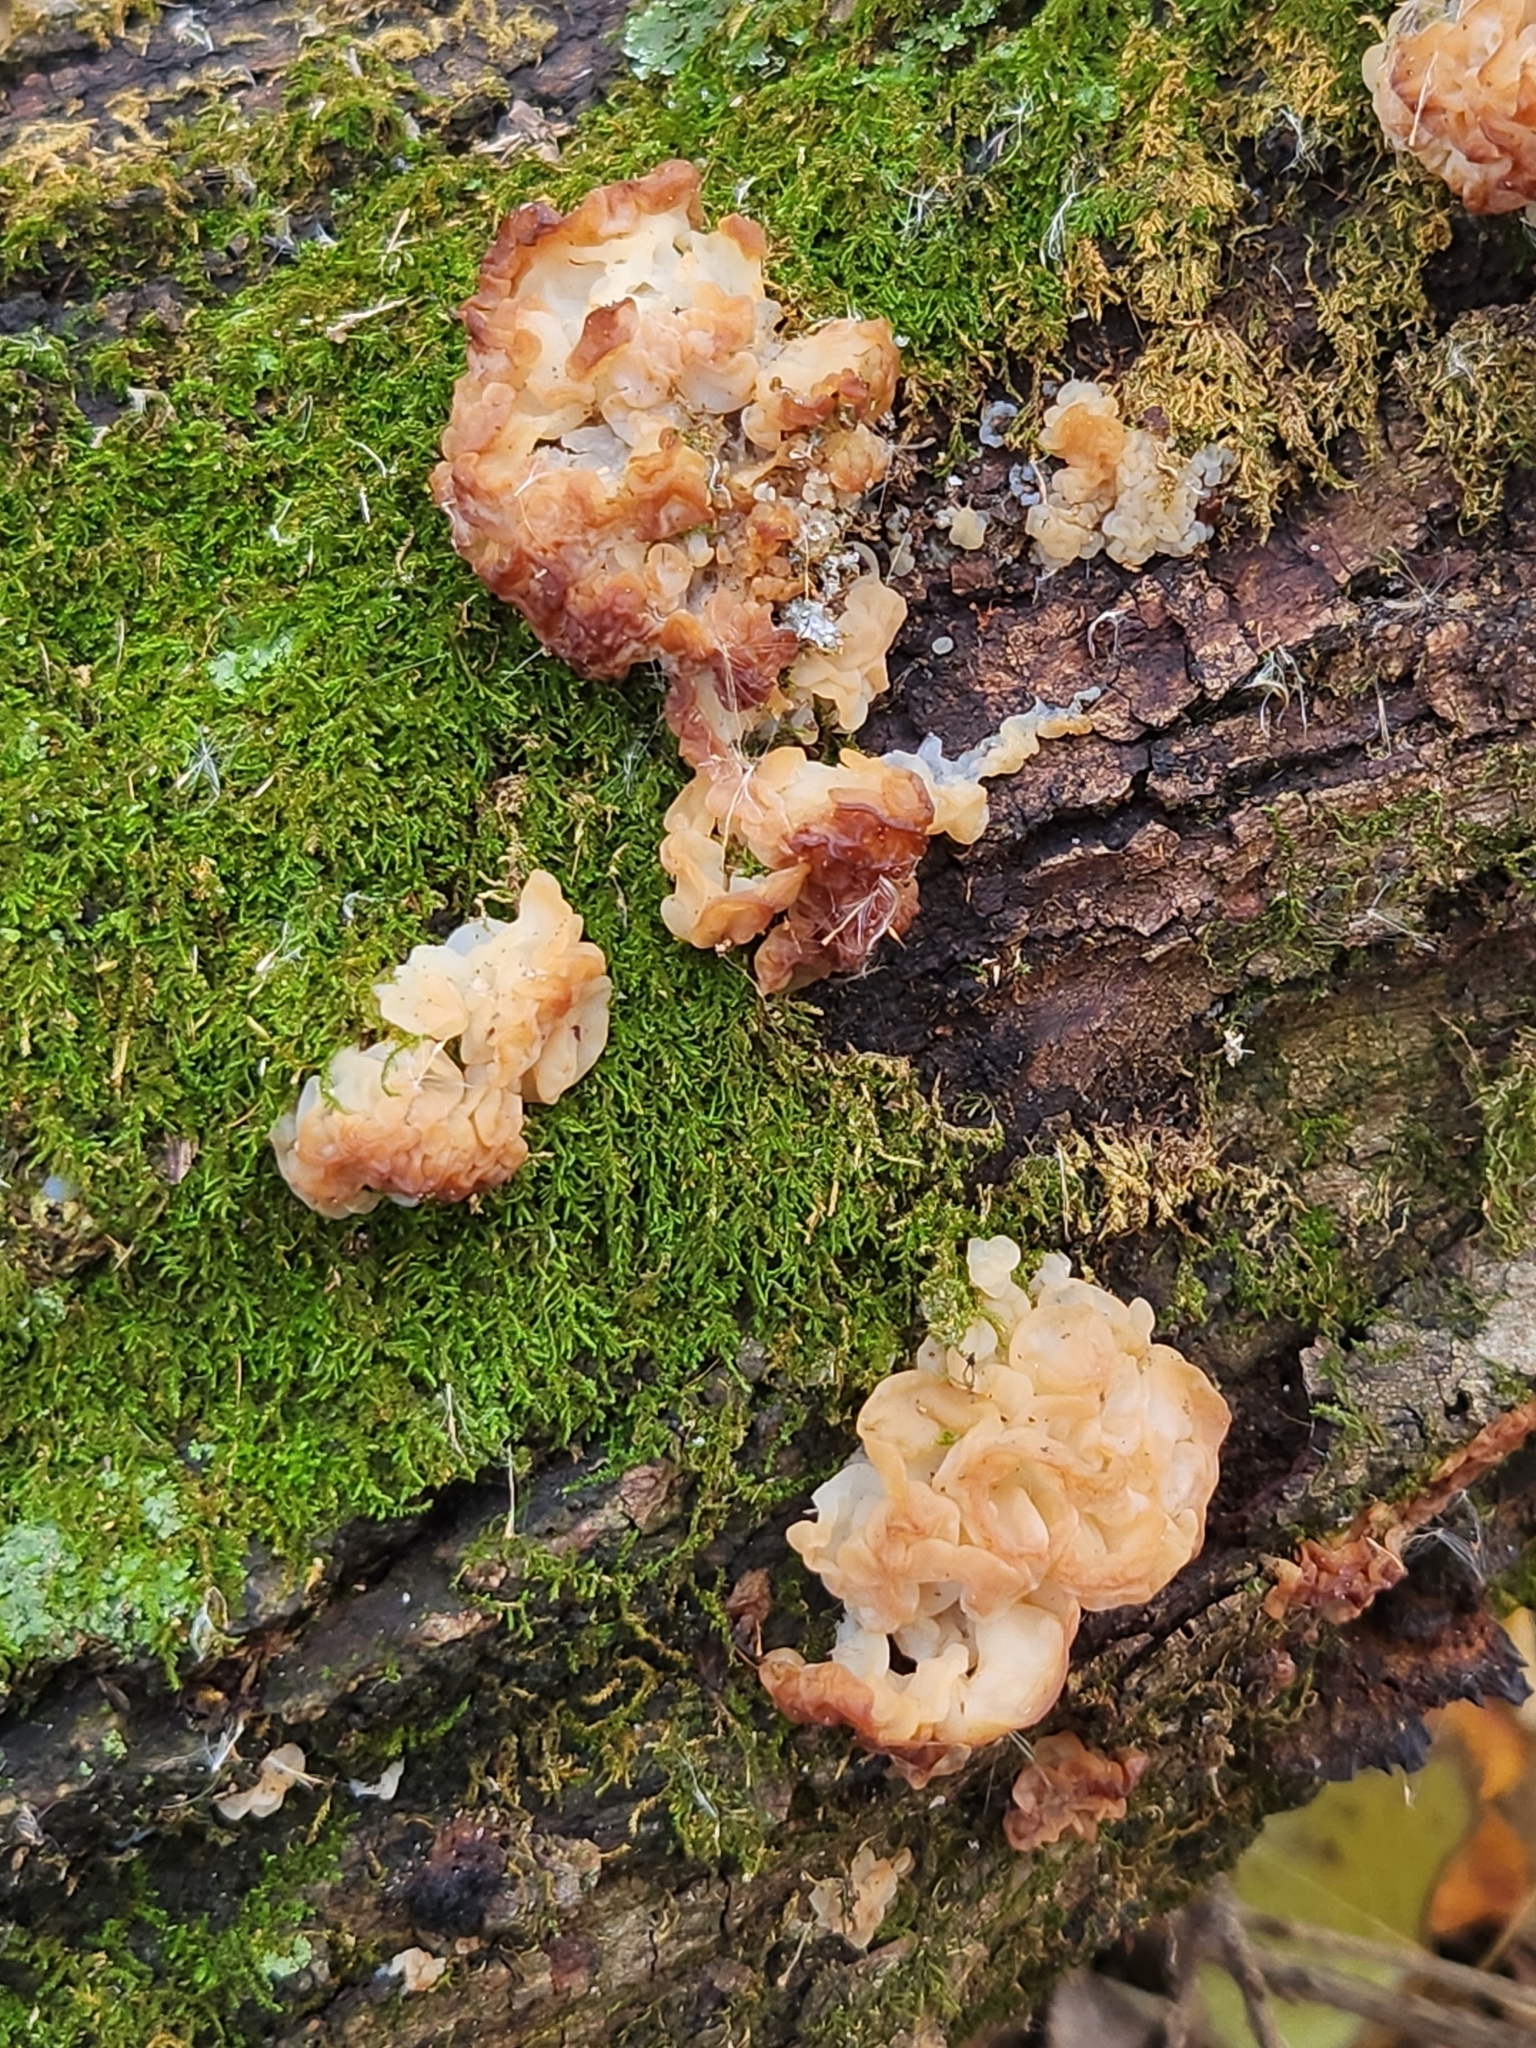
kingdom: Fungi
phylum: Basidiomycota
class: Agaricomycetes
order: Auriculariales
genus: Ductifera
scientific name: Ductifera pululahuana
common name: White jelly fungus
